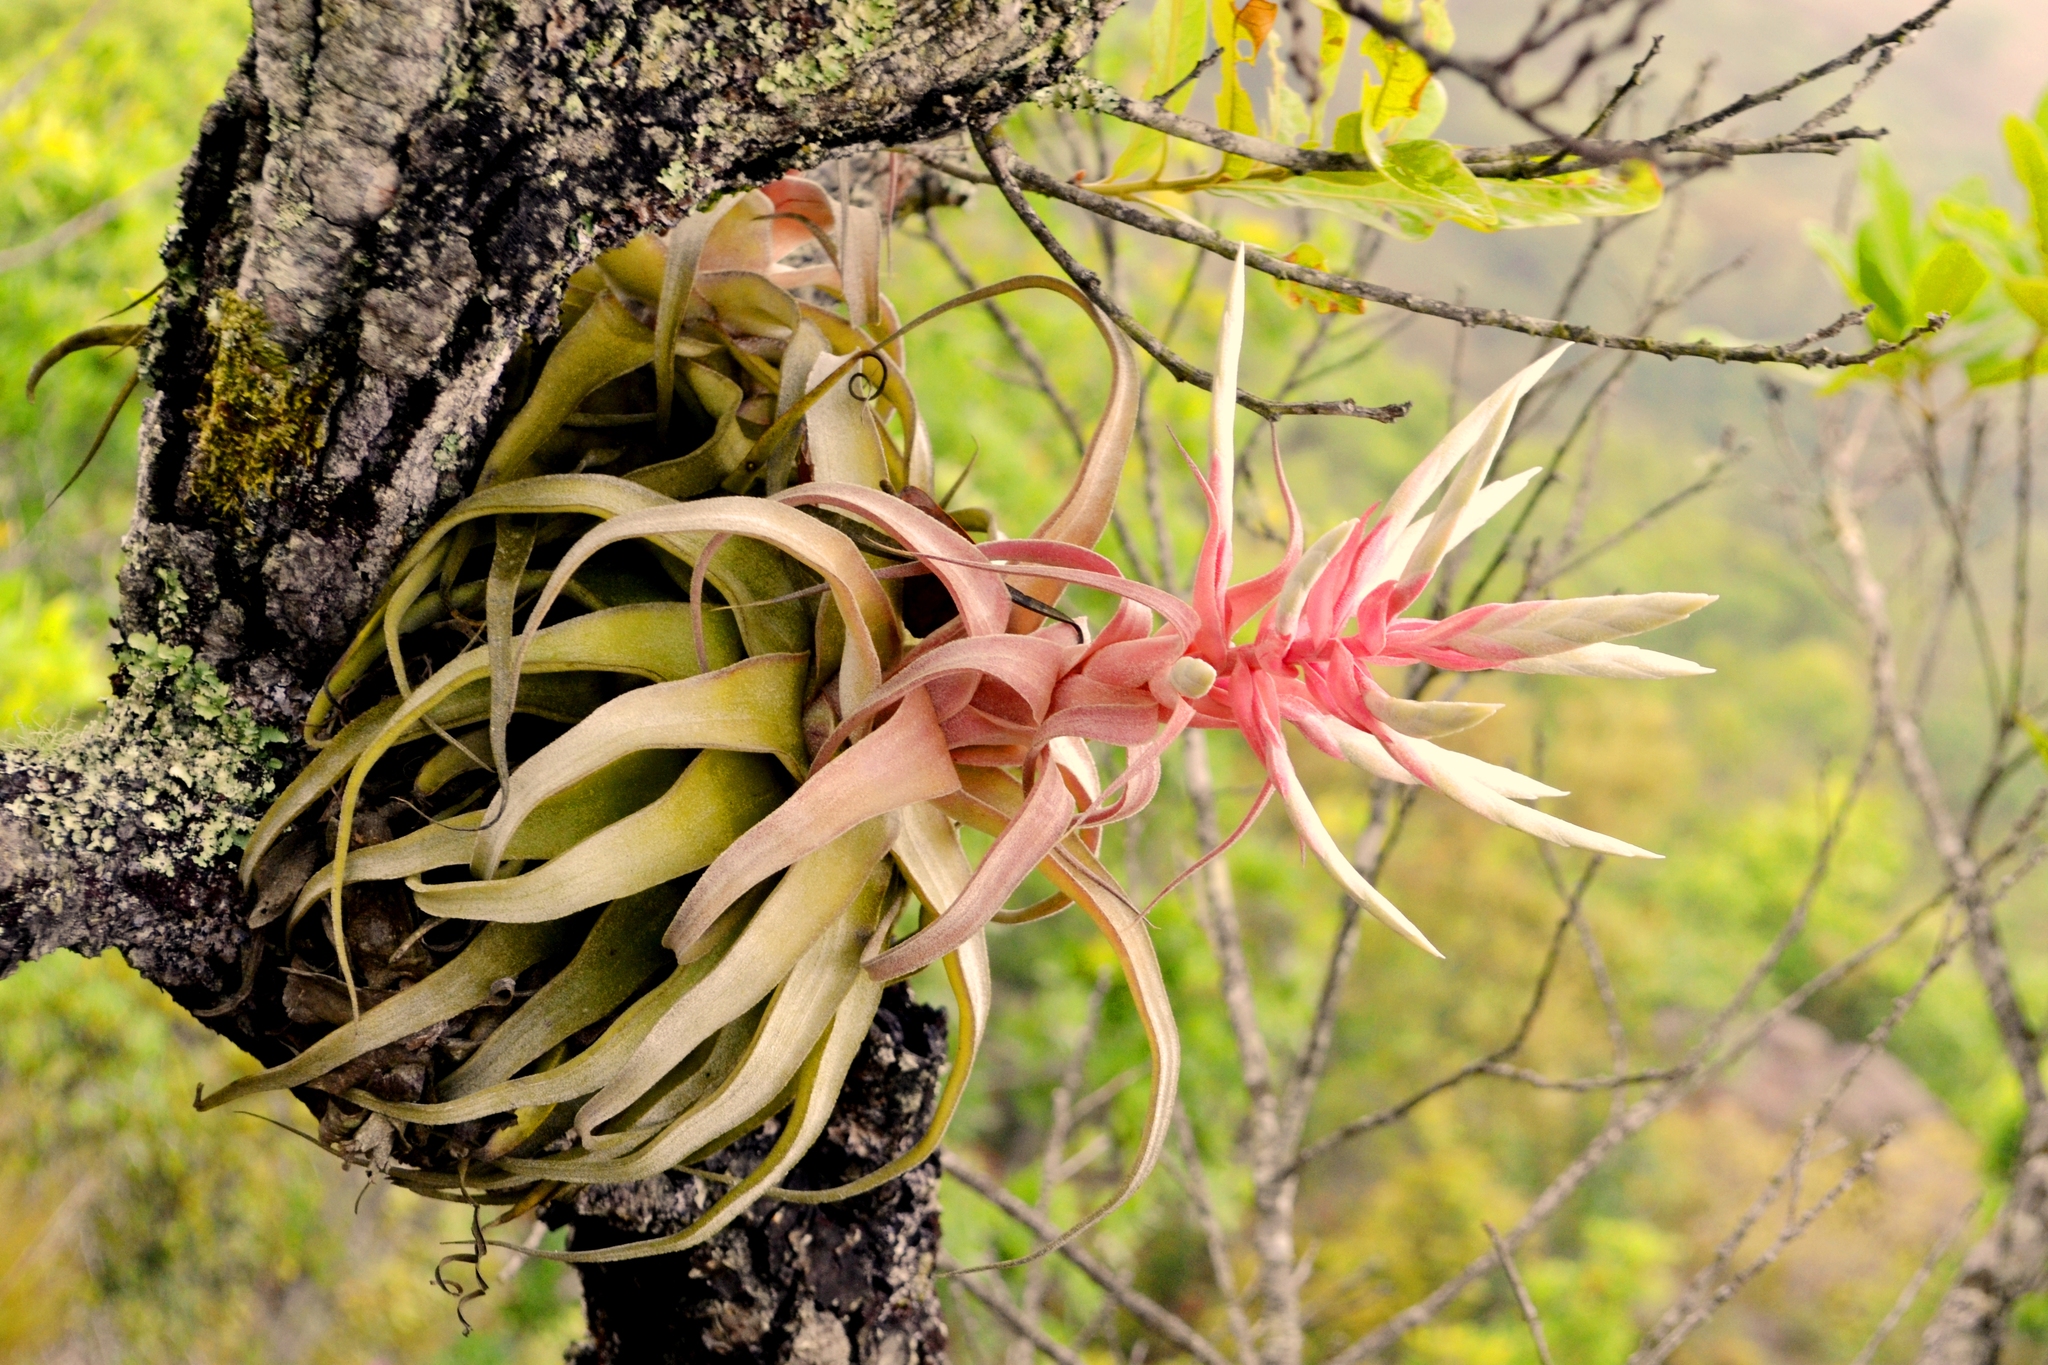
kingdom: Plantae
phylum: Tracheophyta
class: Liliopsida
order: Poales
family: Bromeliaceae
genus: Tillandsia
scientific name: Tillandsia streptophylla
